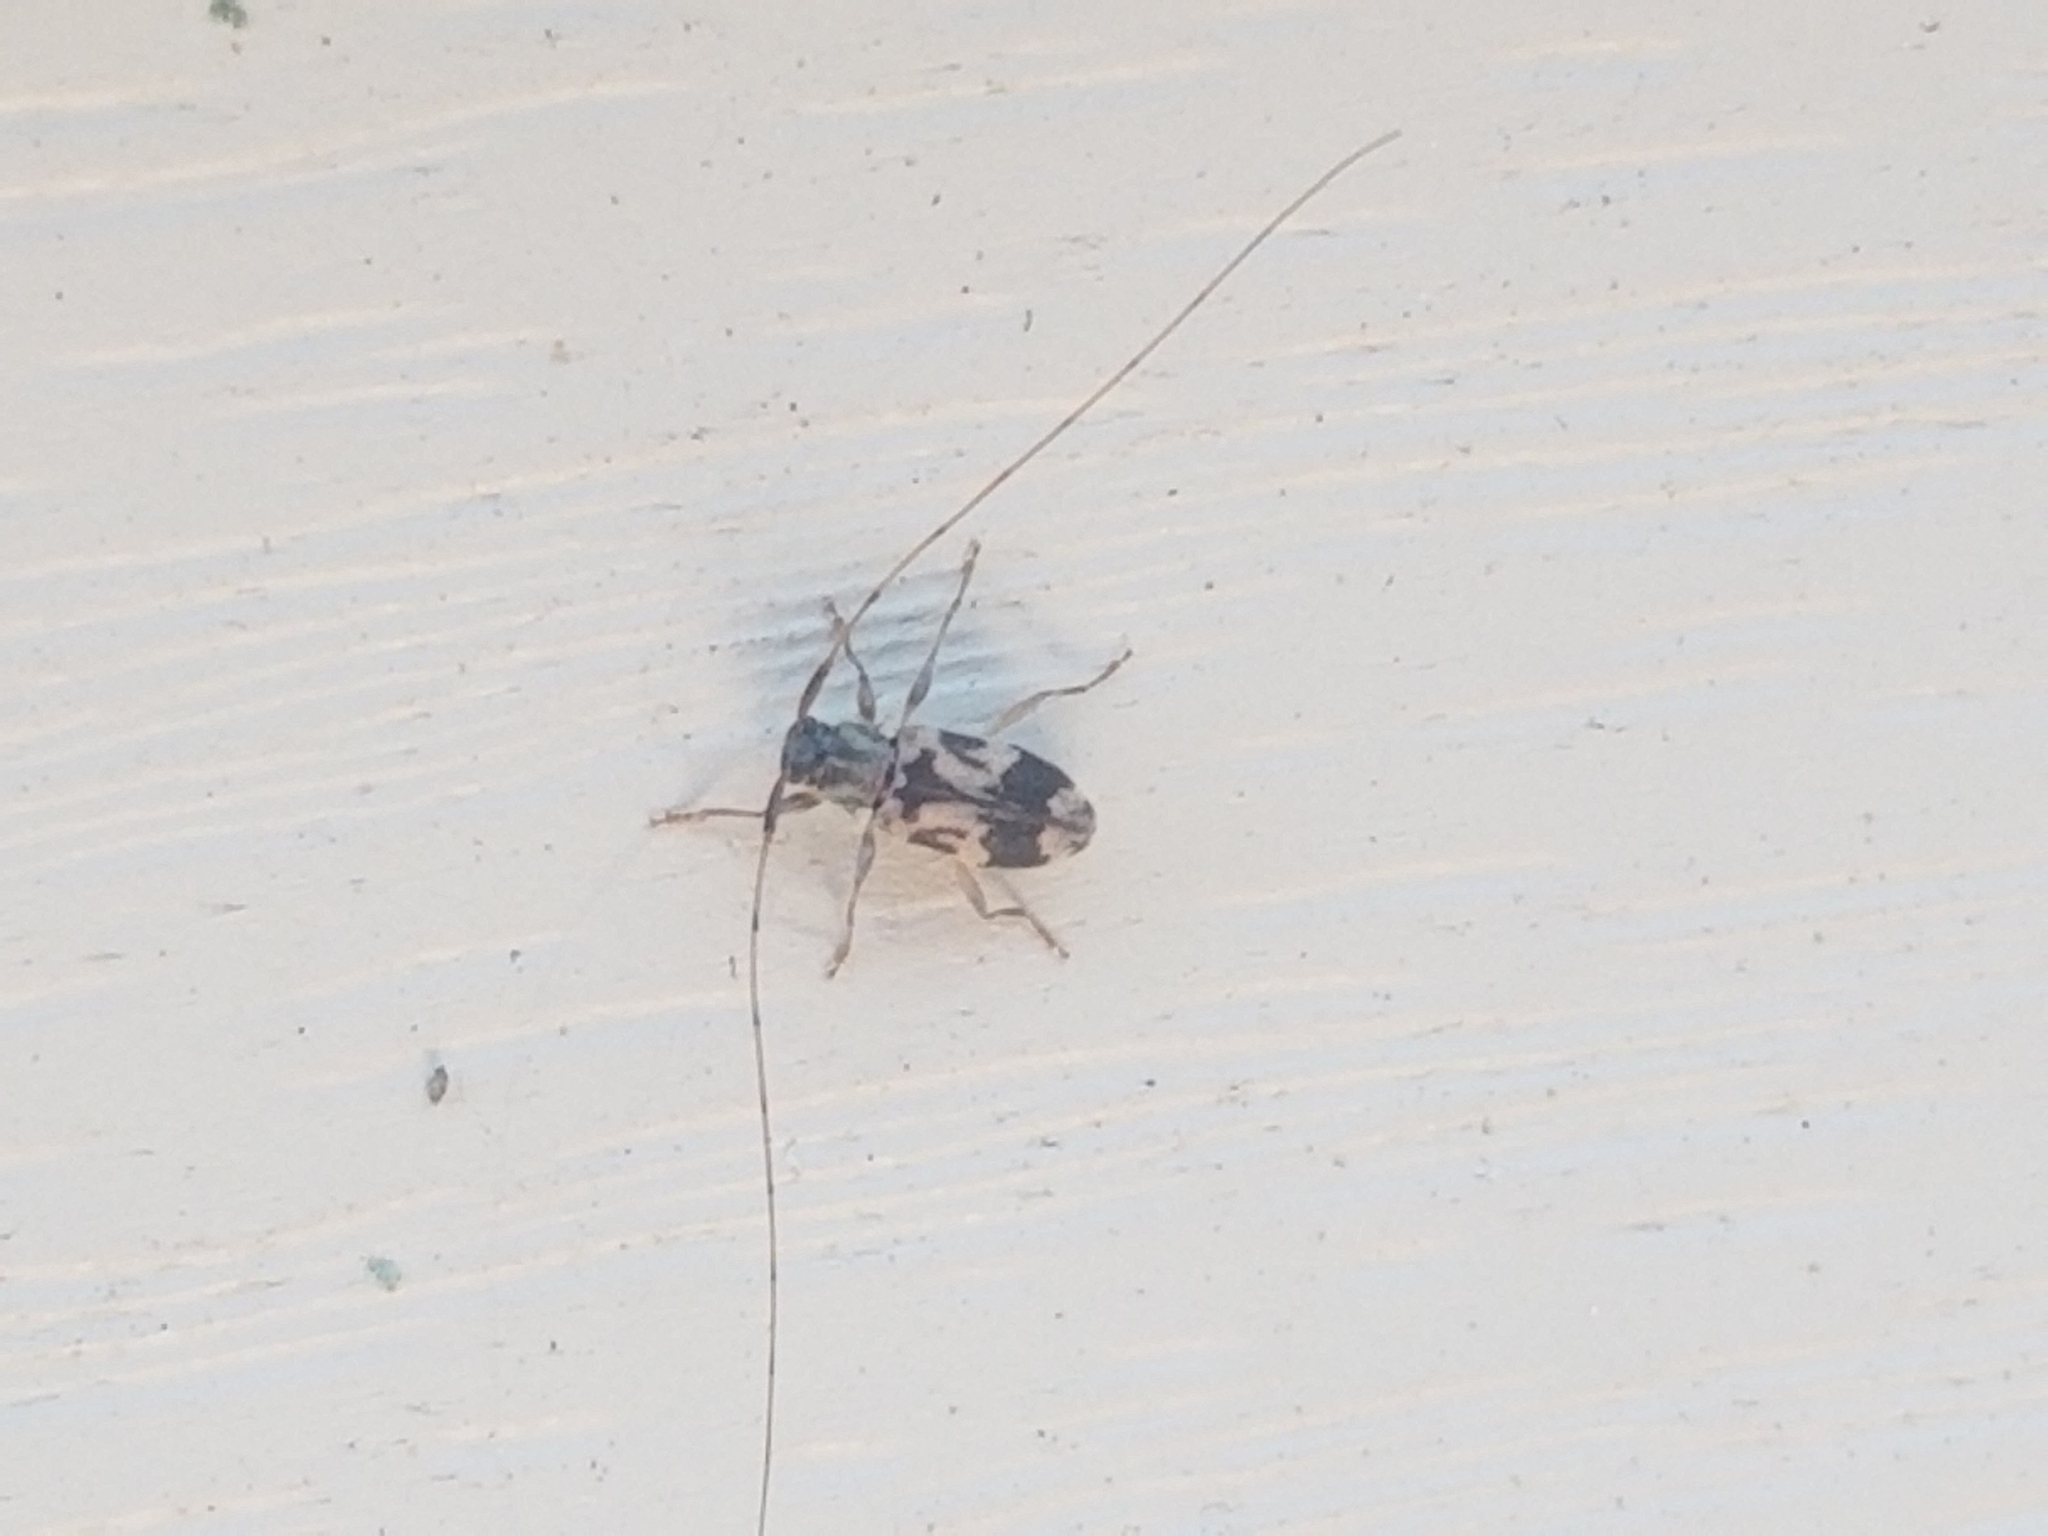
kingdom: Animalia
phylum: Arthropoda
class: Insecta
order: Coleoptera
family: Cerambycidae
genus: Urgleptes
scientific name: Urgleptes querci
